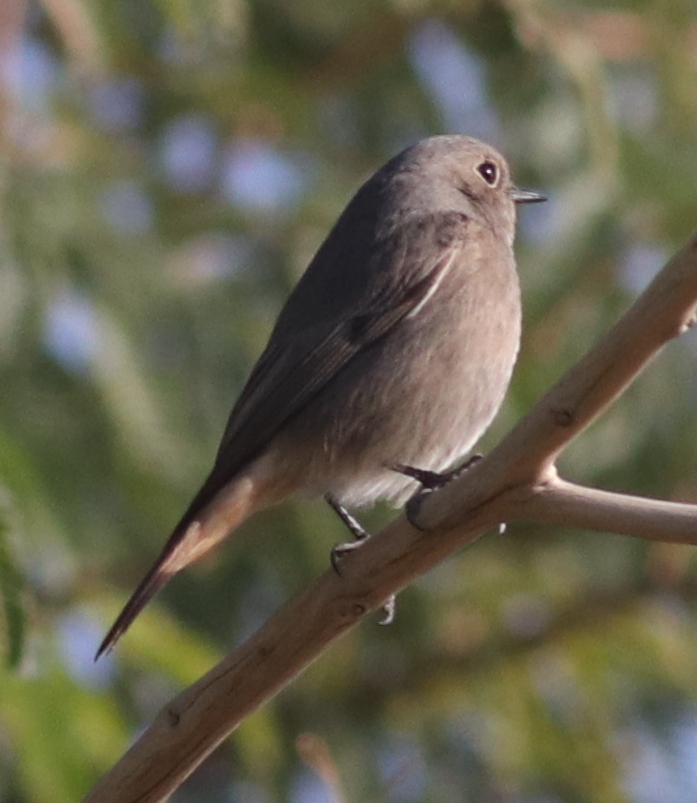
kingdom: Animalia
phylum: Chordata
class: Aves
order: Passeriformes
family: Muscicapidae
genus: Phoenicurus
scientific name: Phoenicurus ochruros
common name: Black redstart
